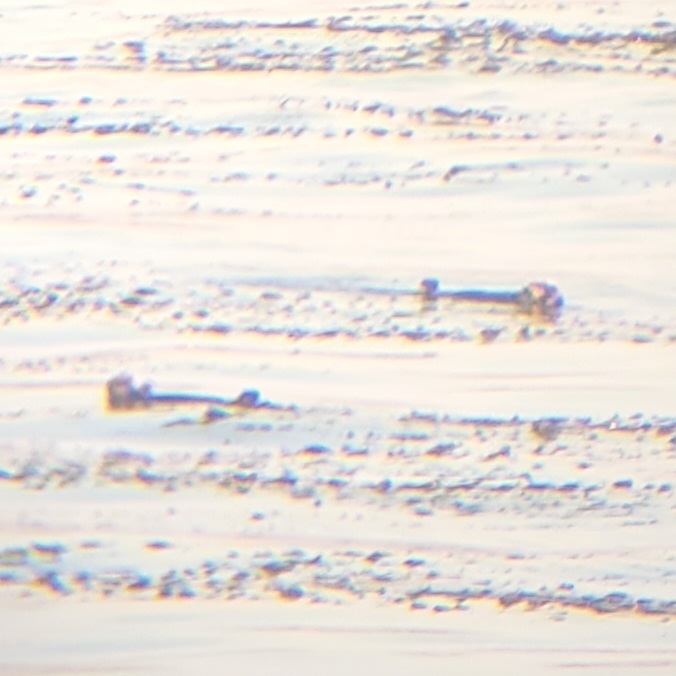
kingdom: Animalia
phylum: Chordata
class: Mammalia
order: Carnivora
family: Mustelidae
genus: Enhydra
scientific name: Enhydra lutris
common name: Sea otter
